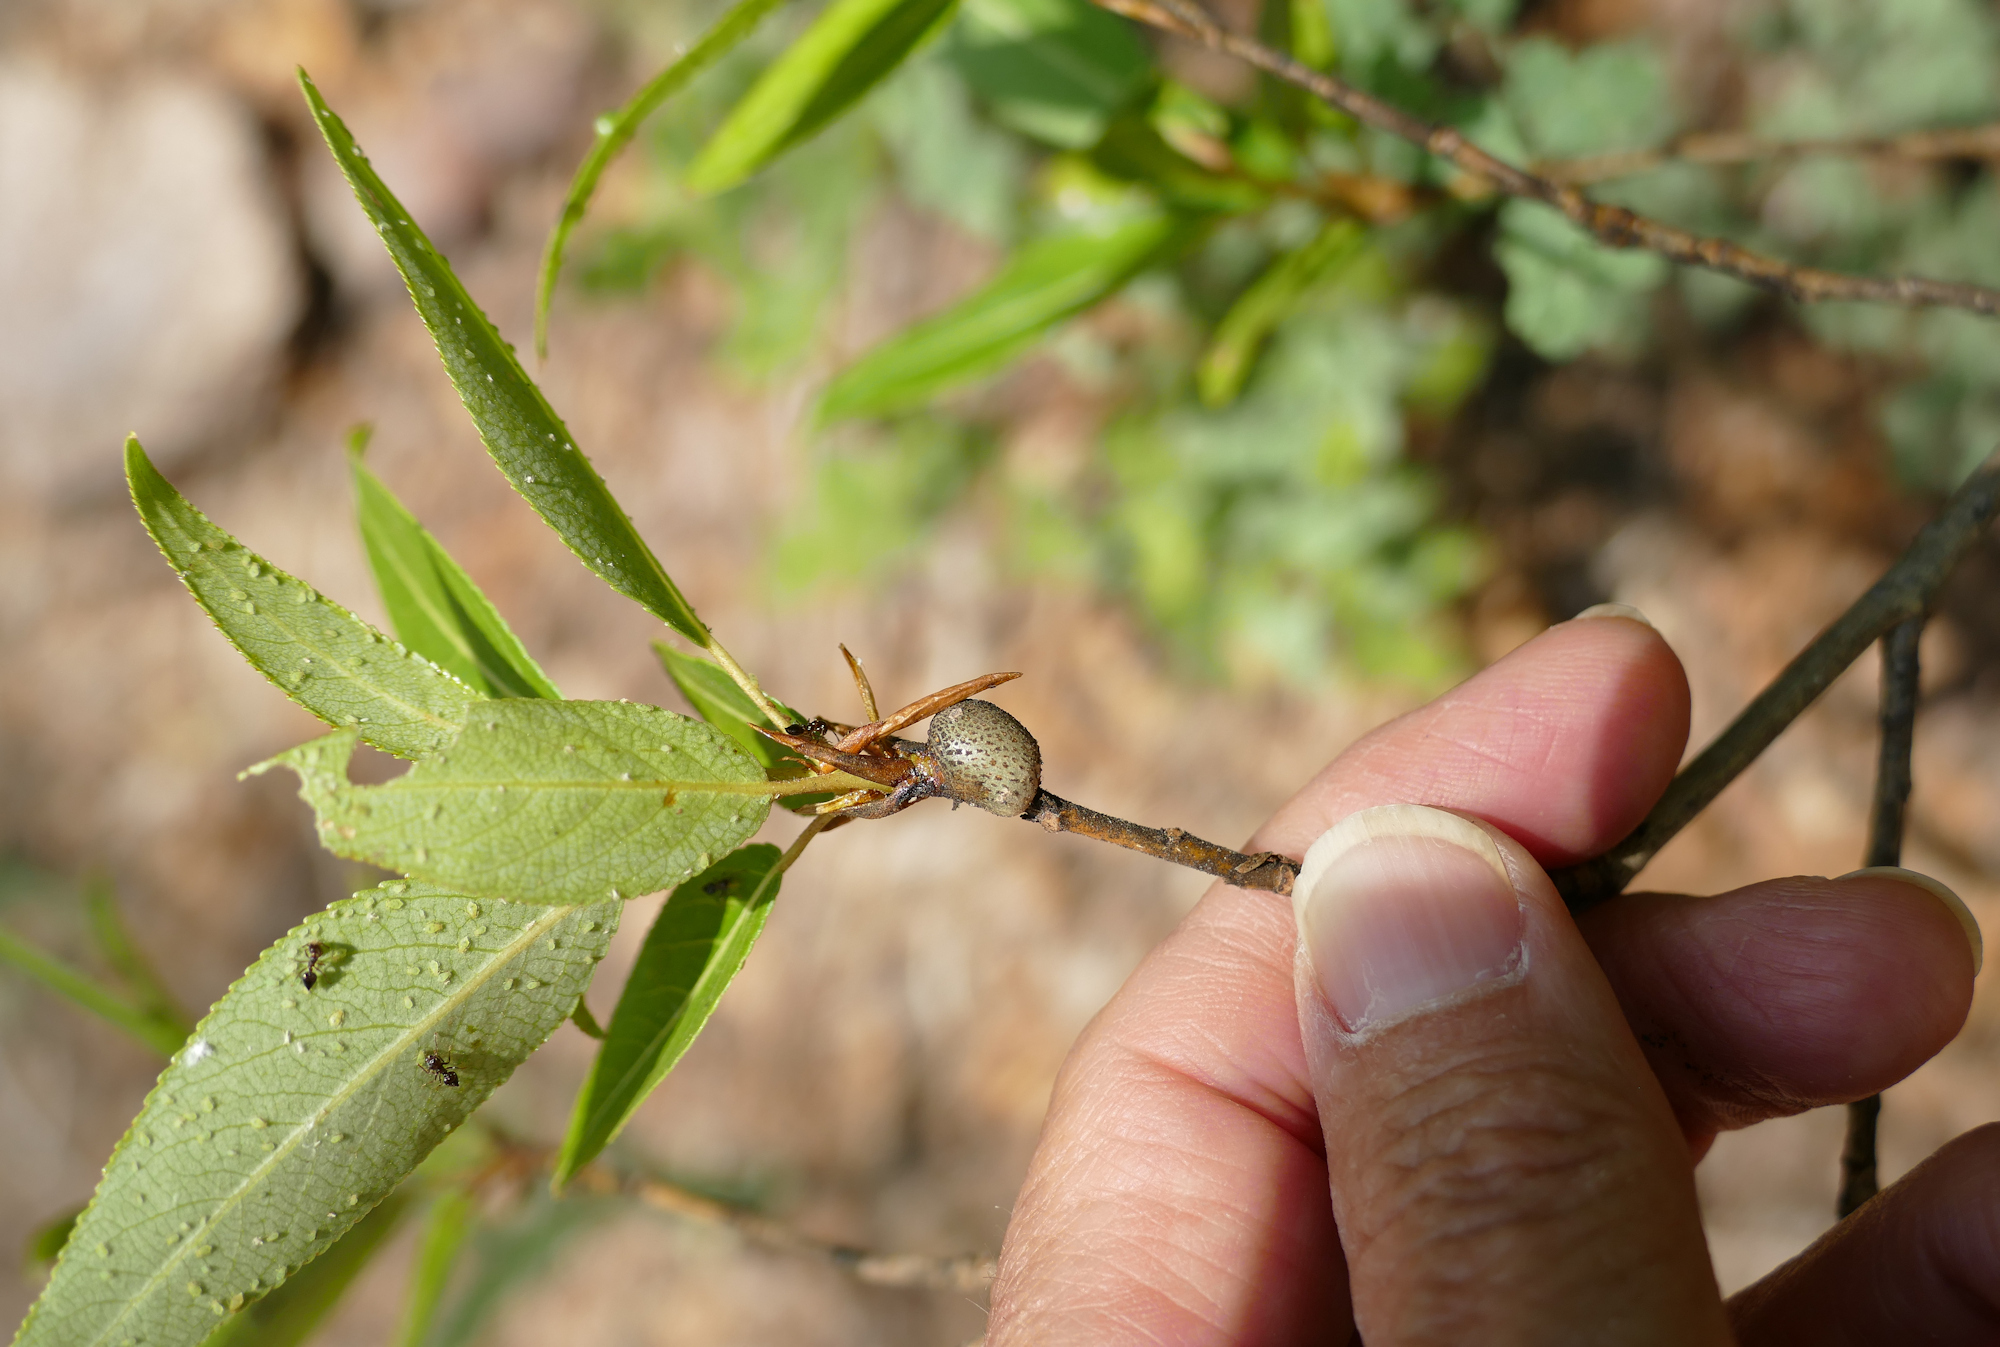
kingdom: Animalia
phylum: Arthropoda
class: Insecta
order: Hemiptera
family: Aphididae
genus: Pemphigus
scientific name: Pemphigus populiramulorum
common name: Poplar twig gall aphid
